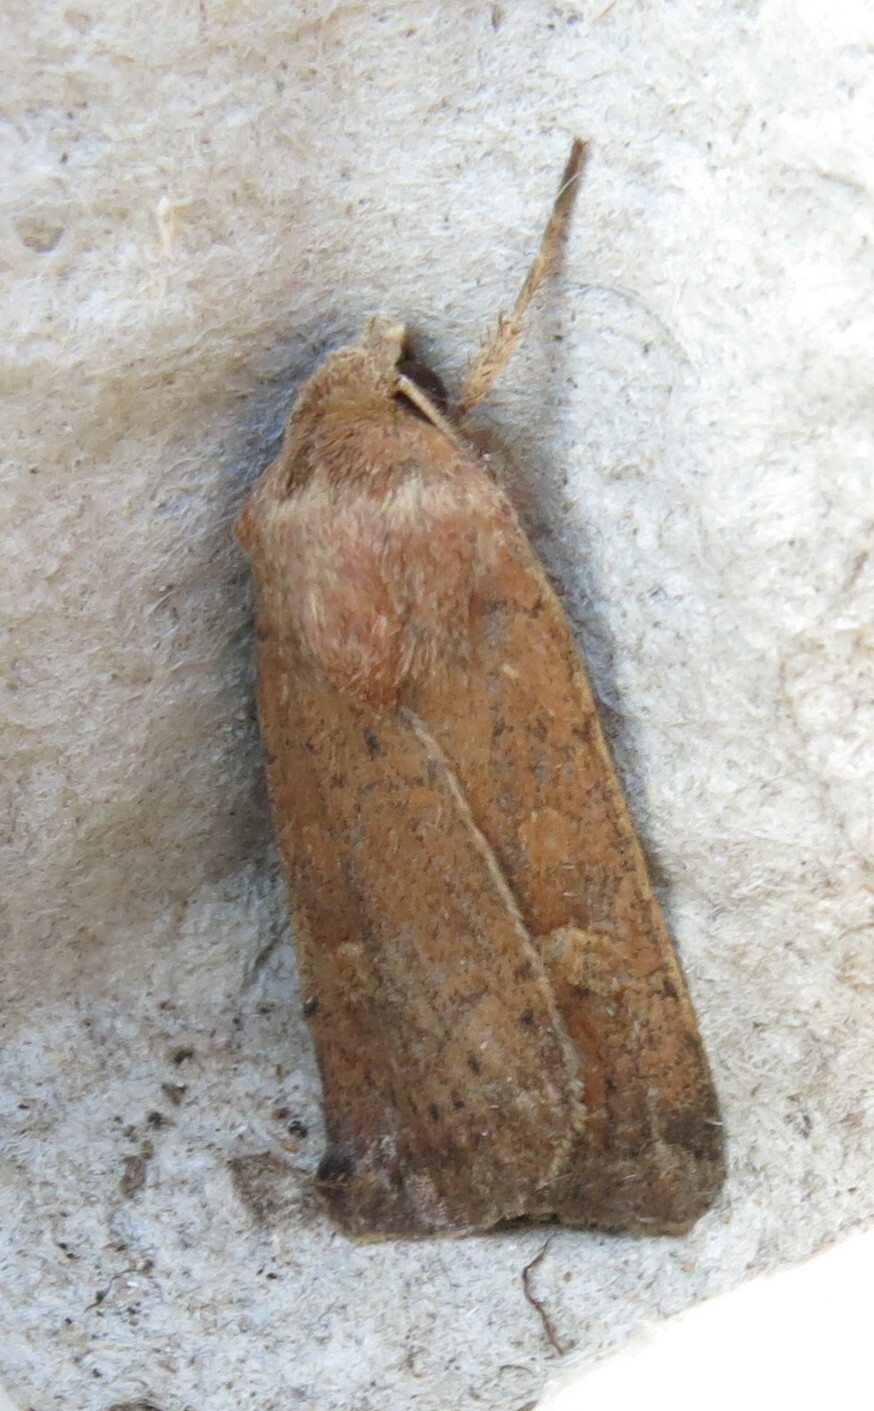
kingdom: Animalia
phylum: Arthropoda
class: Insecta
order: Lepidoptera
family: Noctuidae
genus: Xestia
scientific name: Xestia xanthographa
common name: Square-spot rustic
